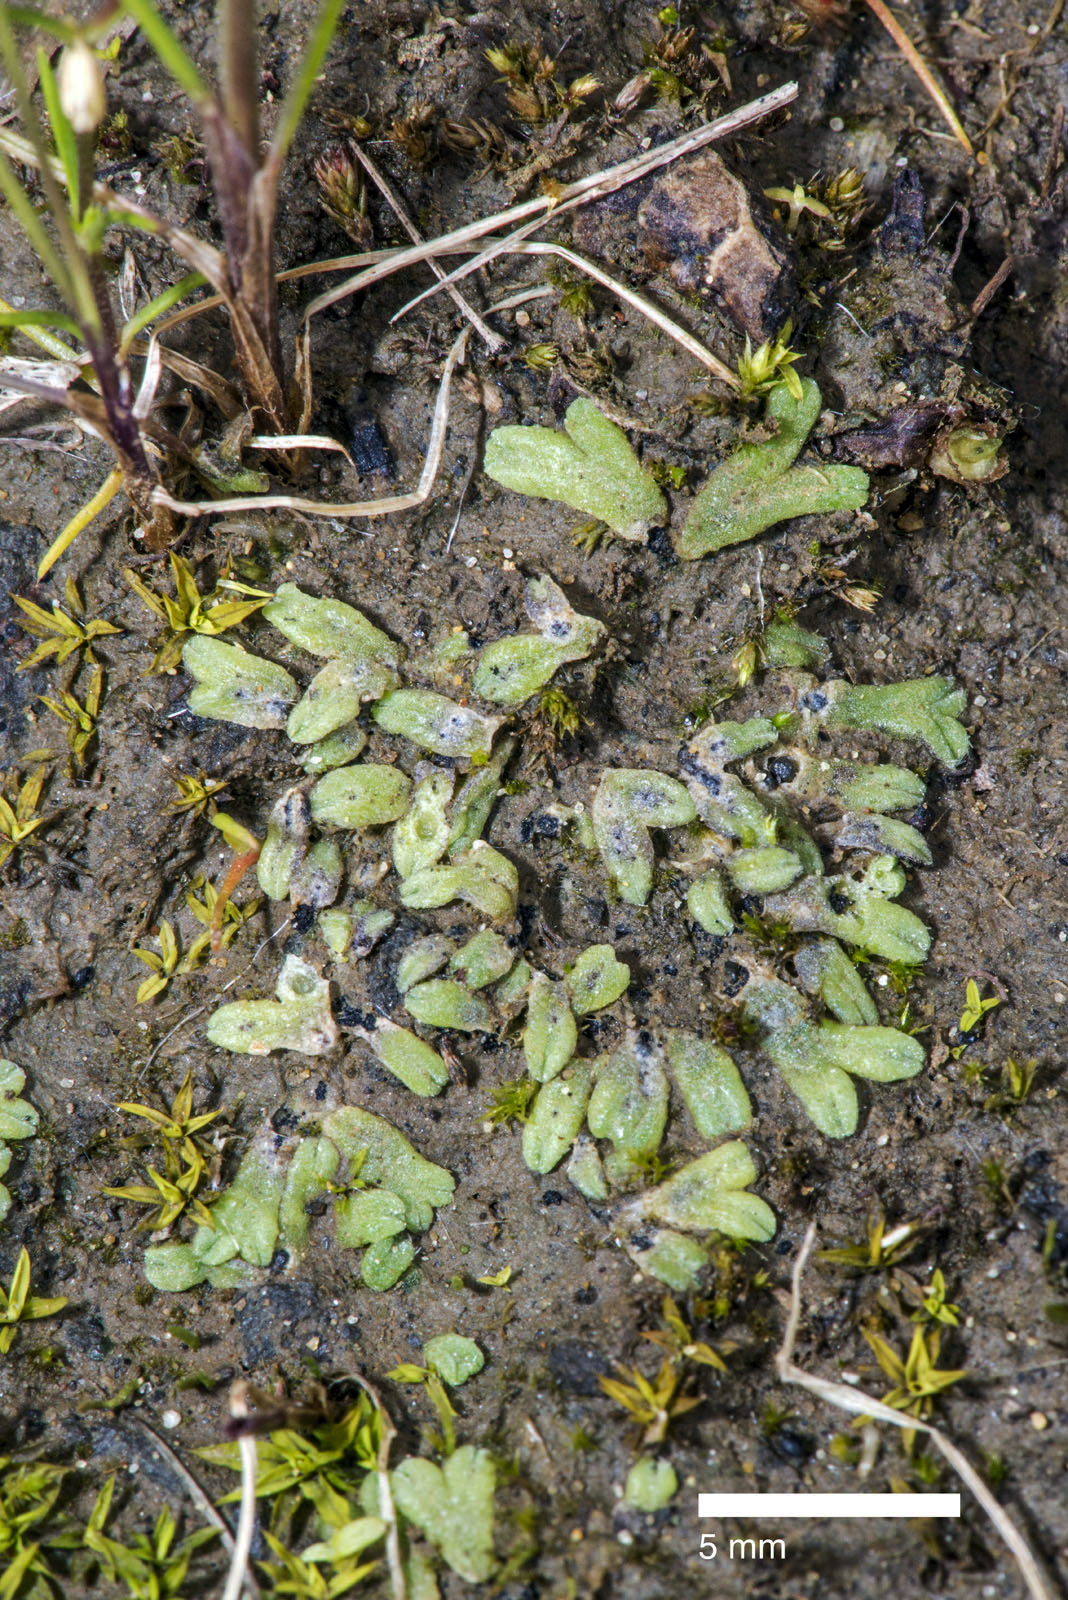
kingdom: Plantae
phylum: Marchantiophyta
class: Marchantiopsida
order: Marchantiales
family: Ricciaceae
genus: Riccia
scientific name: Riccia crozalsii
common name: Ciliate crystalwort
